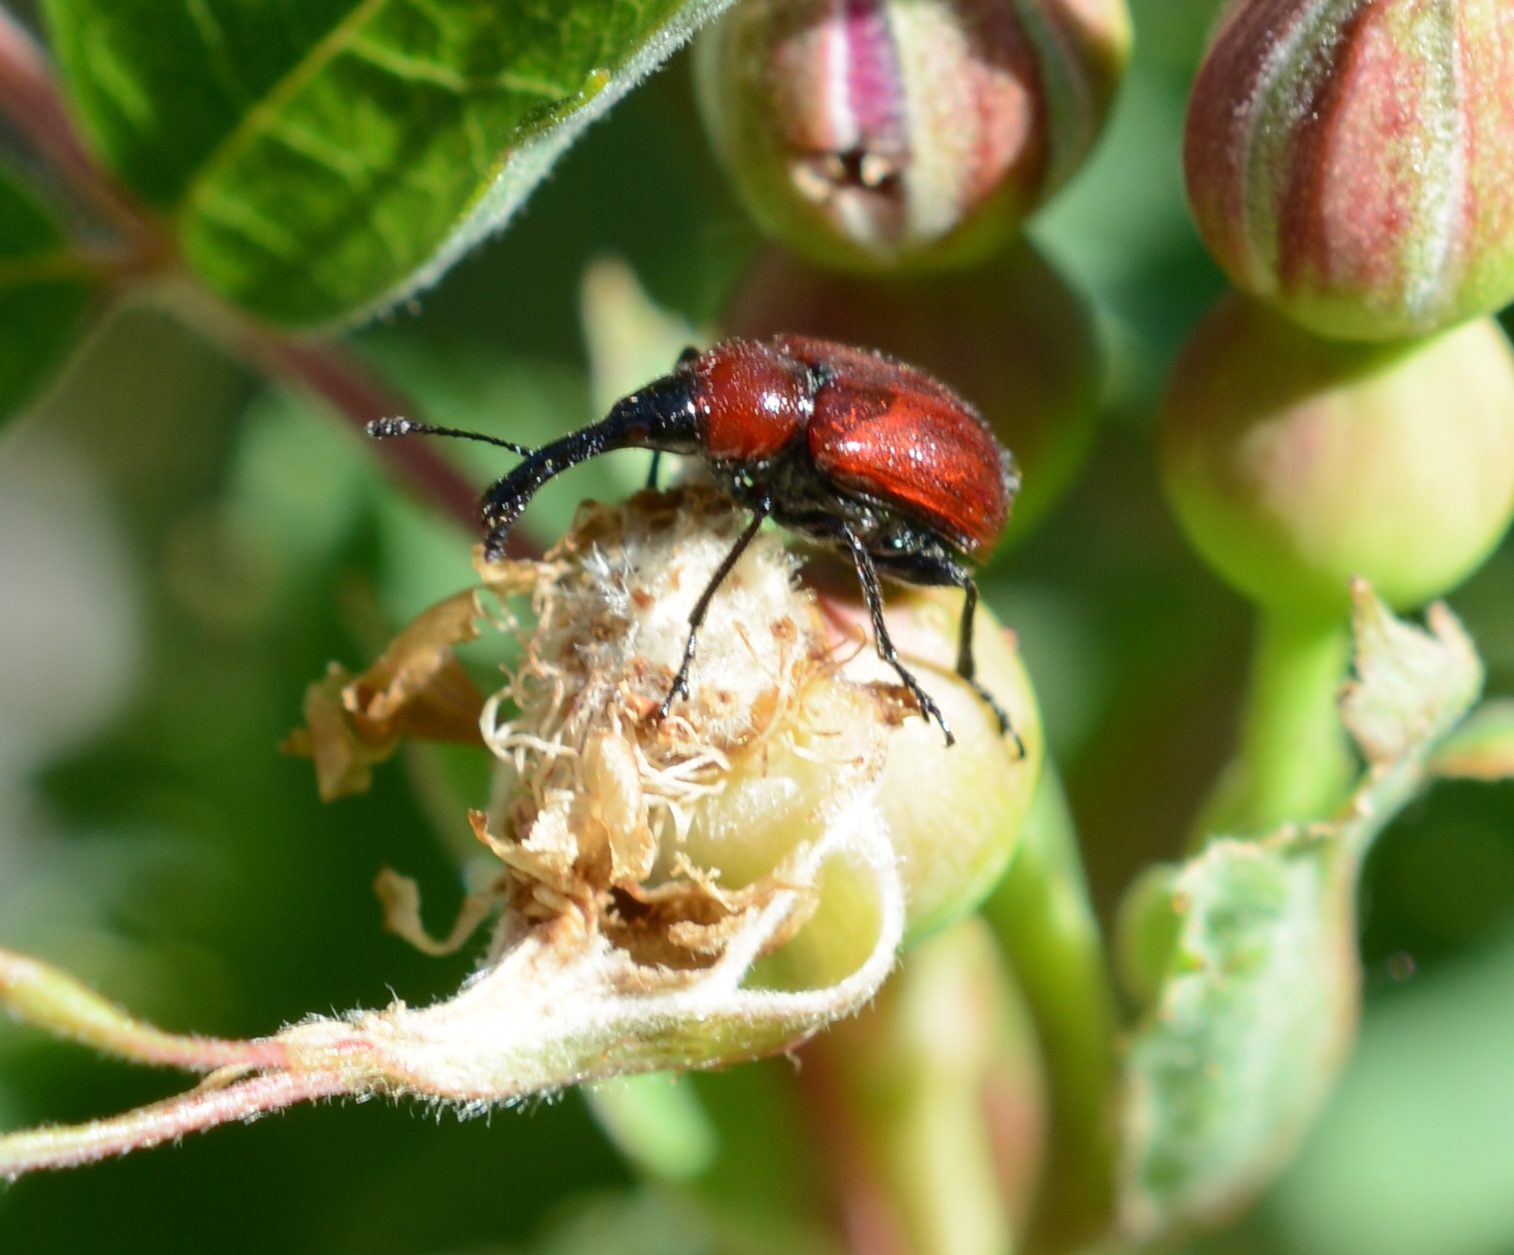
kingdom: Animalia
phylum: Arthropoda
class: Insecta
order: Coleoptera
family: Attelabidae
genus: Merhynchites
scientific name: Merhynchites wickhami
